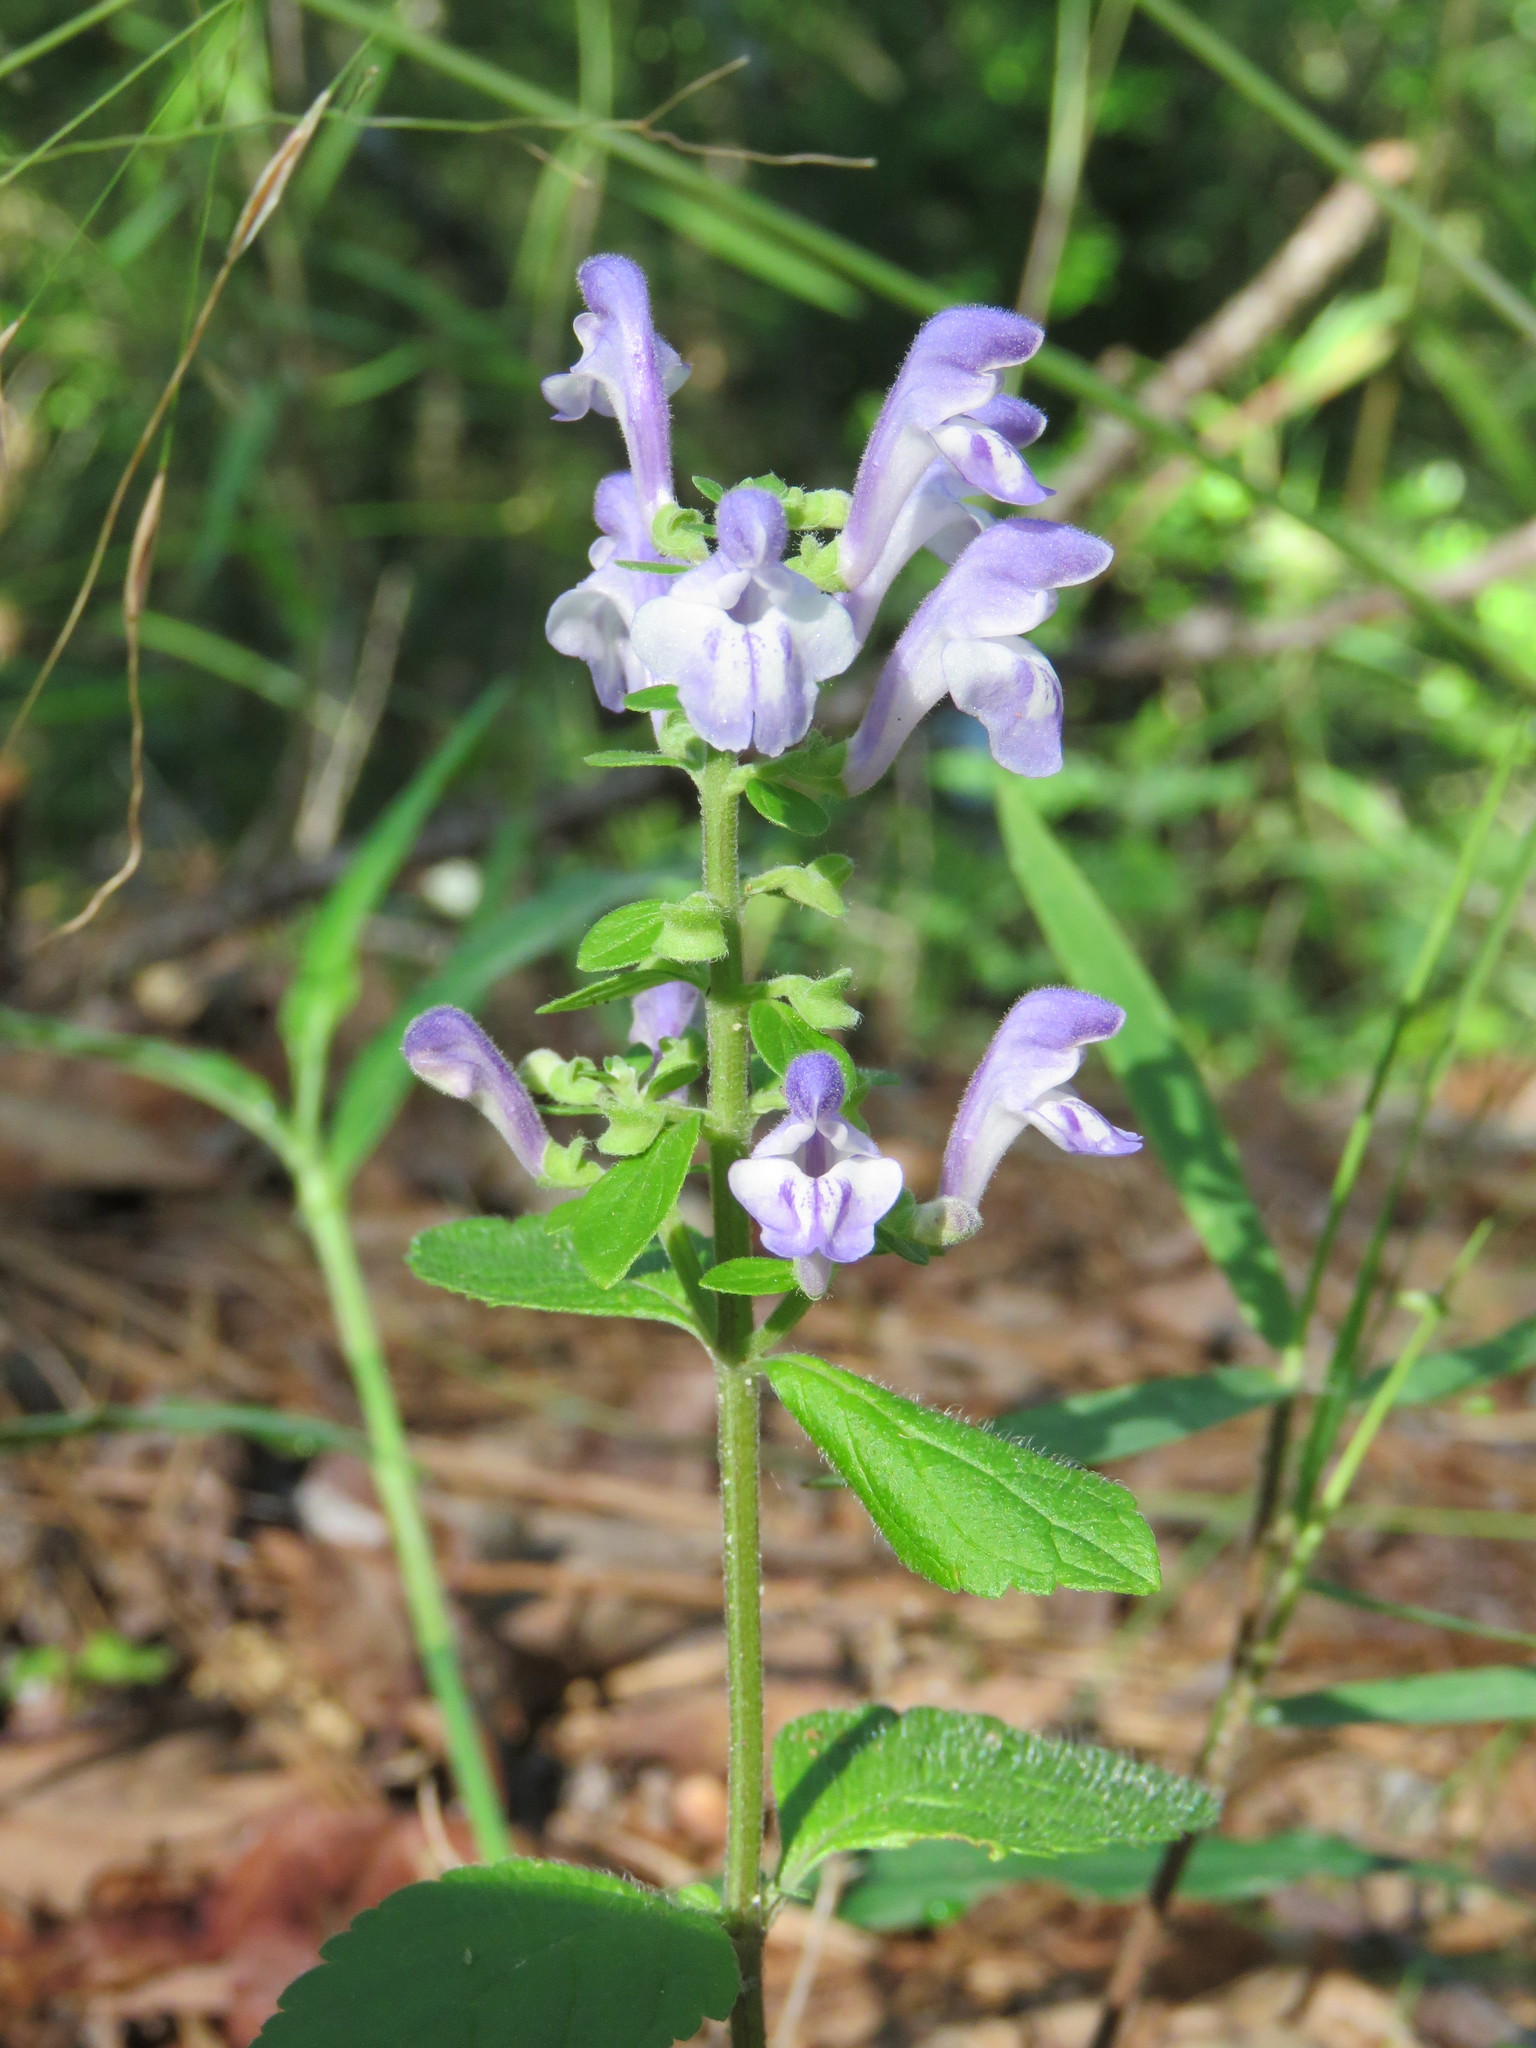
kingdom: Plantae
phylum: Tracheophyta
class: Magnoliopsida
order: Lamiales
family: Lamiaceae
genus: Scutellaria
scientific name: Scutellaria elliptica
